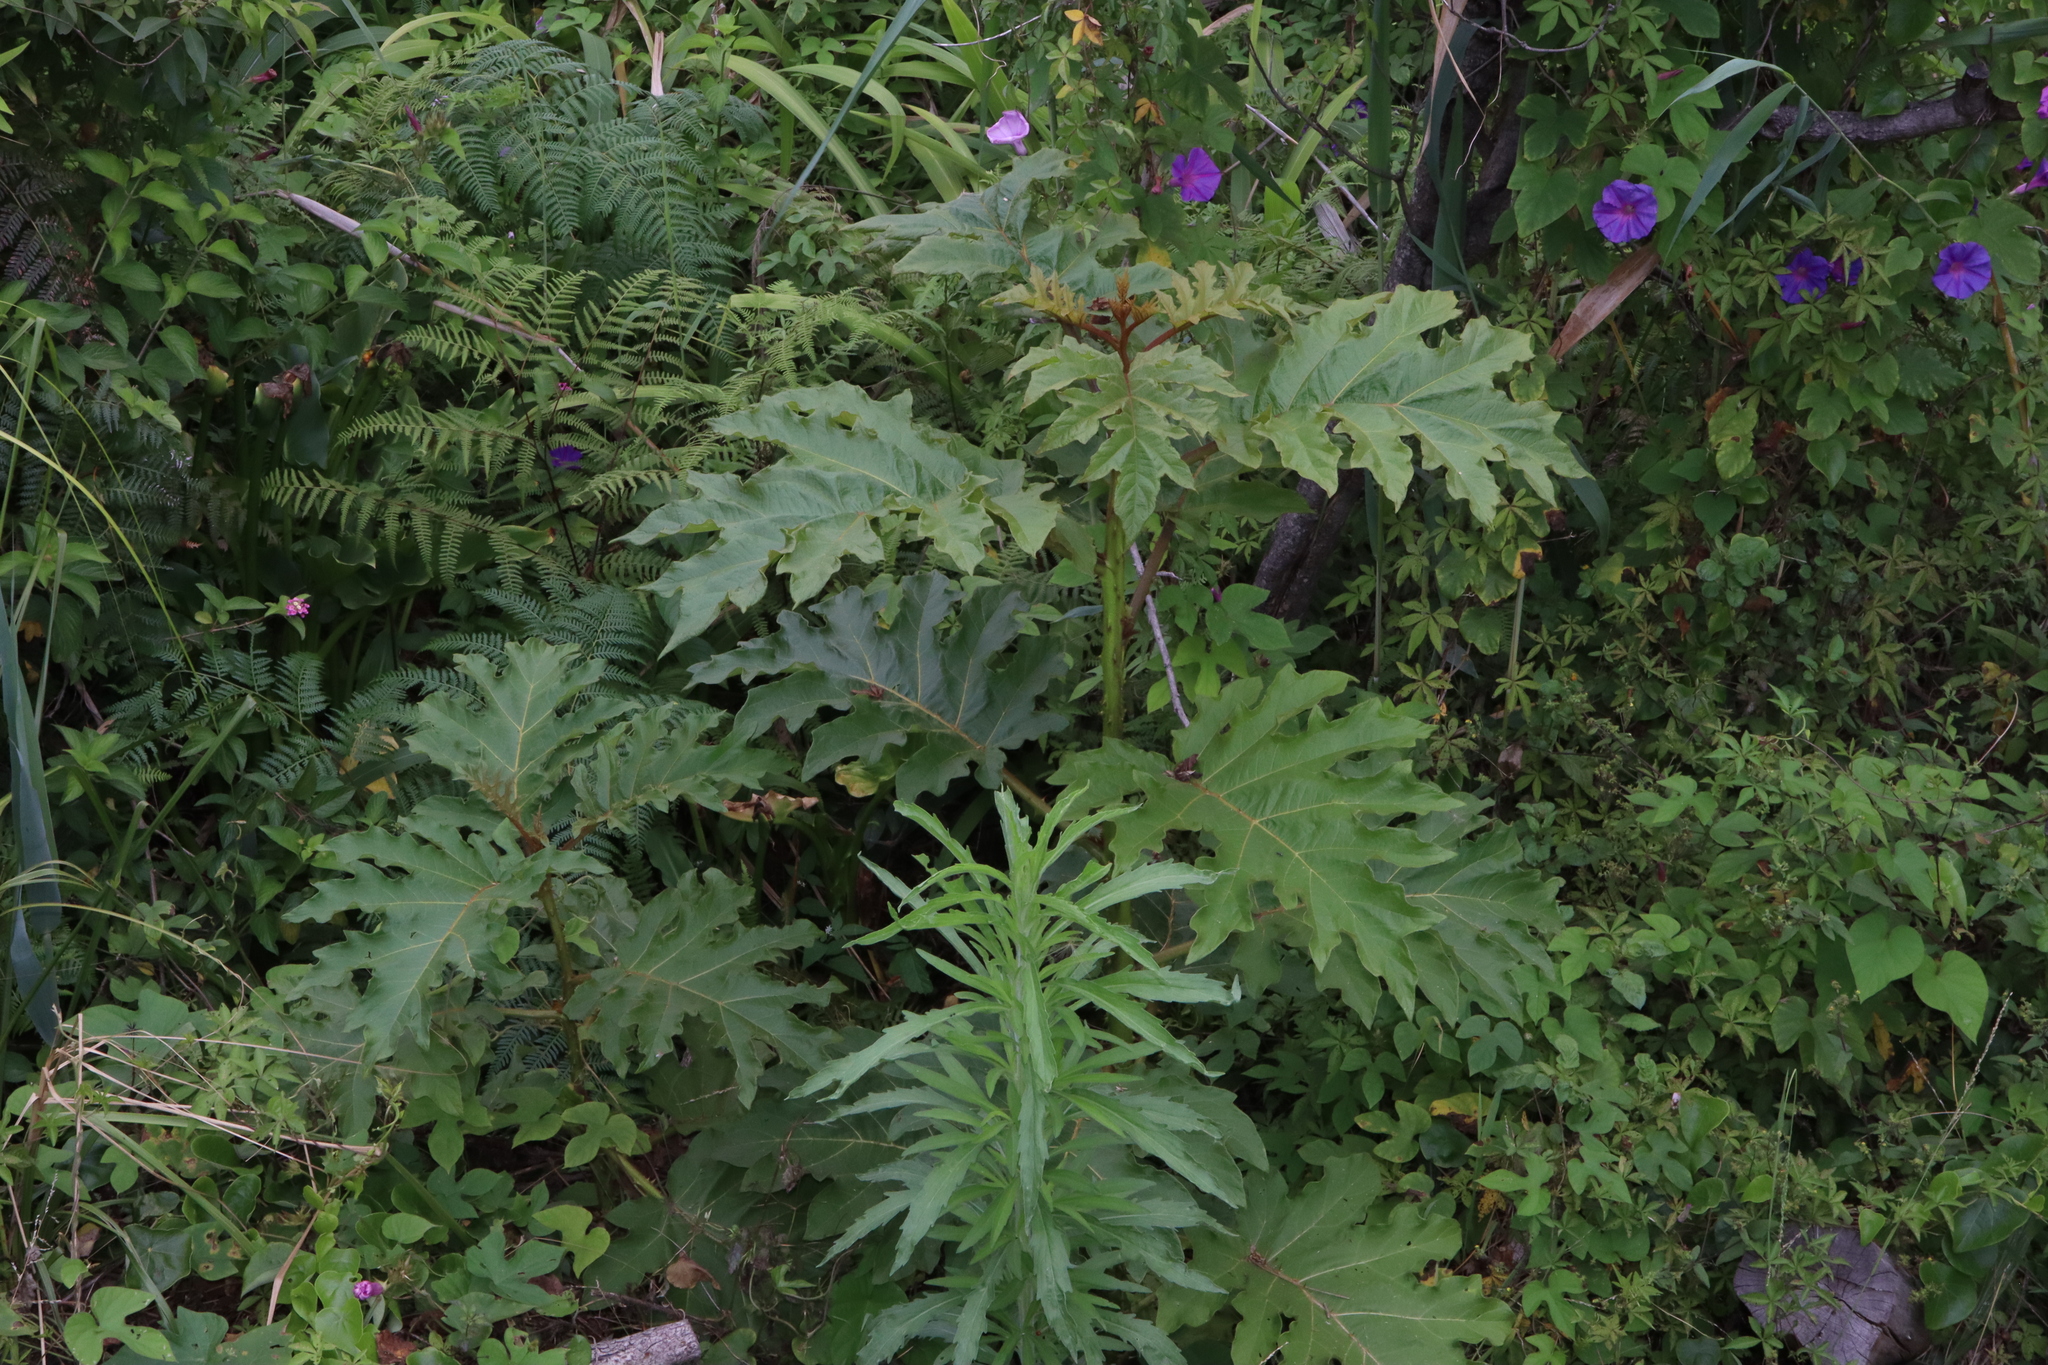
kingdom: Plantae
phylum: Tracheophyta
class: Magnoliopsida
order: Solanales
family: Solanaceae
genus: Solanum
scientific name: Solanum chrysotrichum
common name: Nightshade
